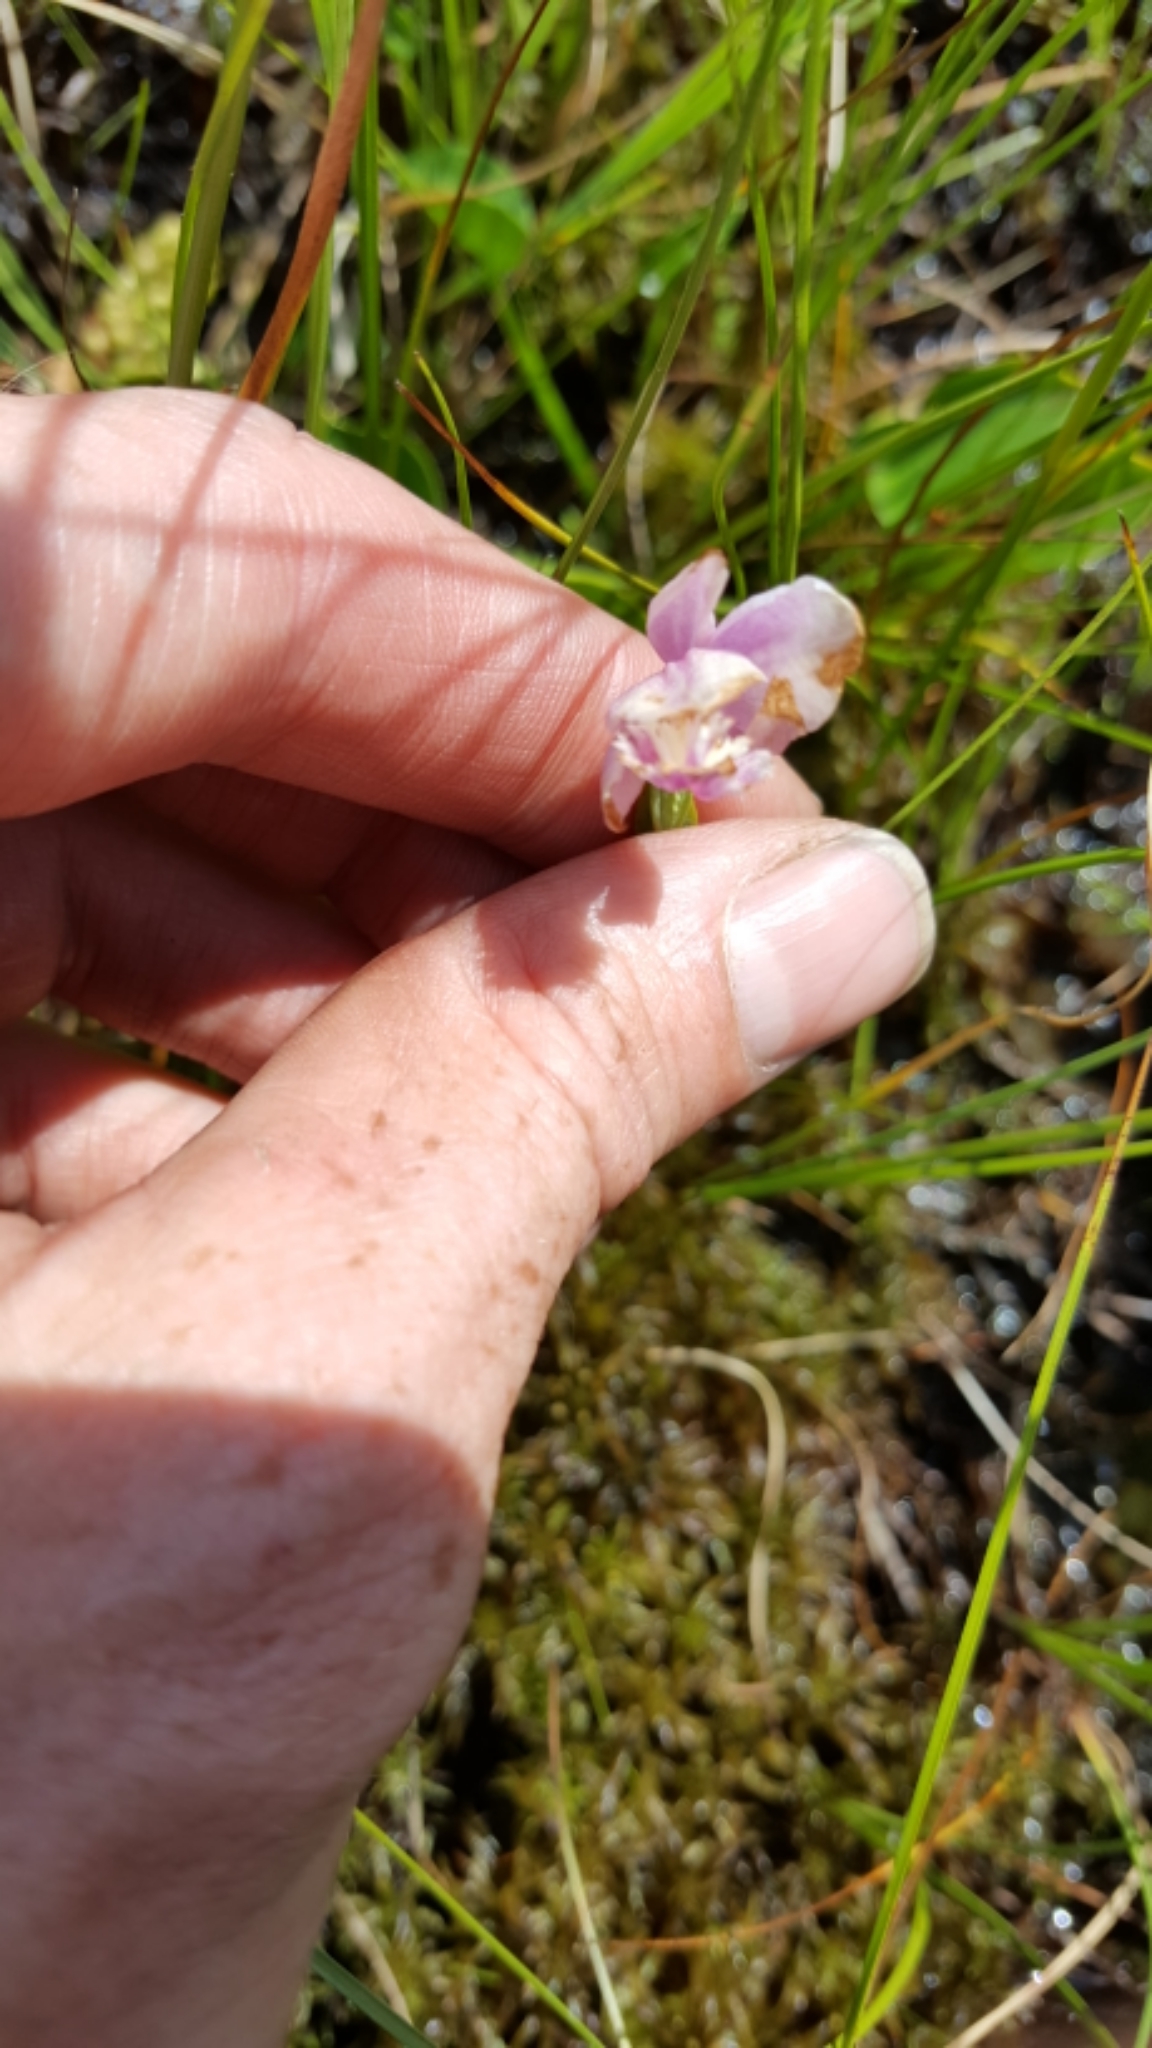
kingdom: Plantae
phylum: Tracheophyta
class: Liliopsida
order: Asparagales
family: Orchidaceae
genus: Pogonia
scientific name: Pogonia ophioglossoides
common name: Rose pogonia
